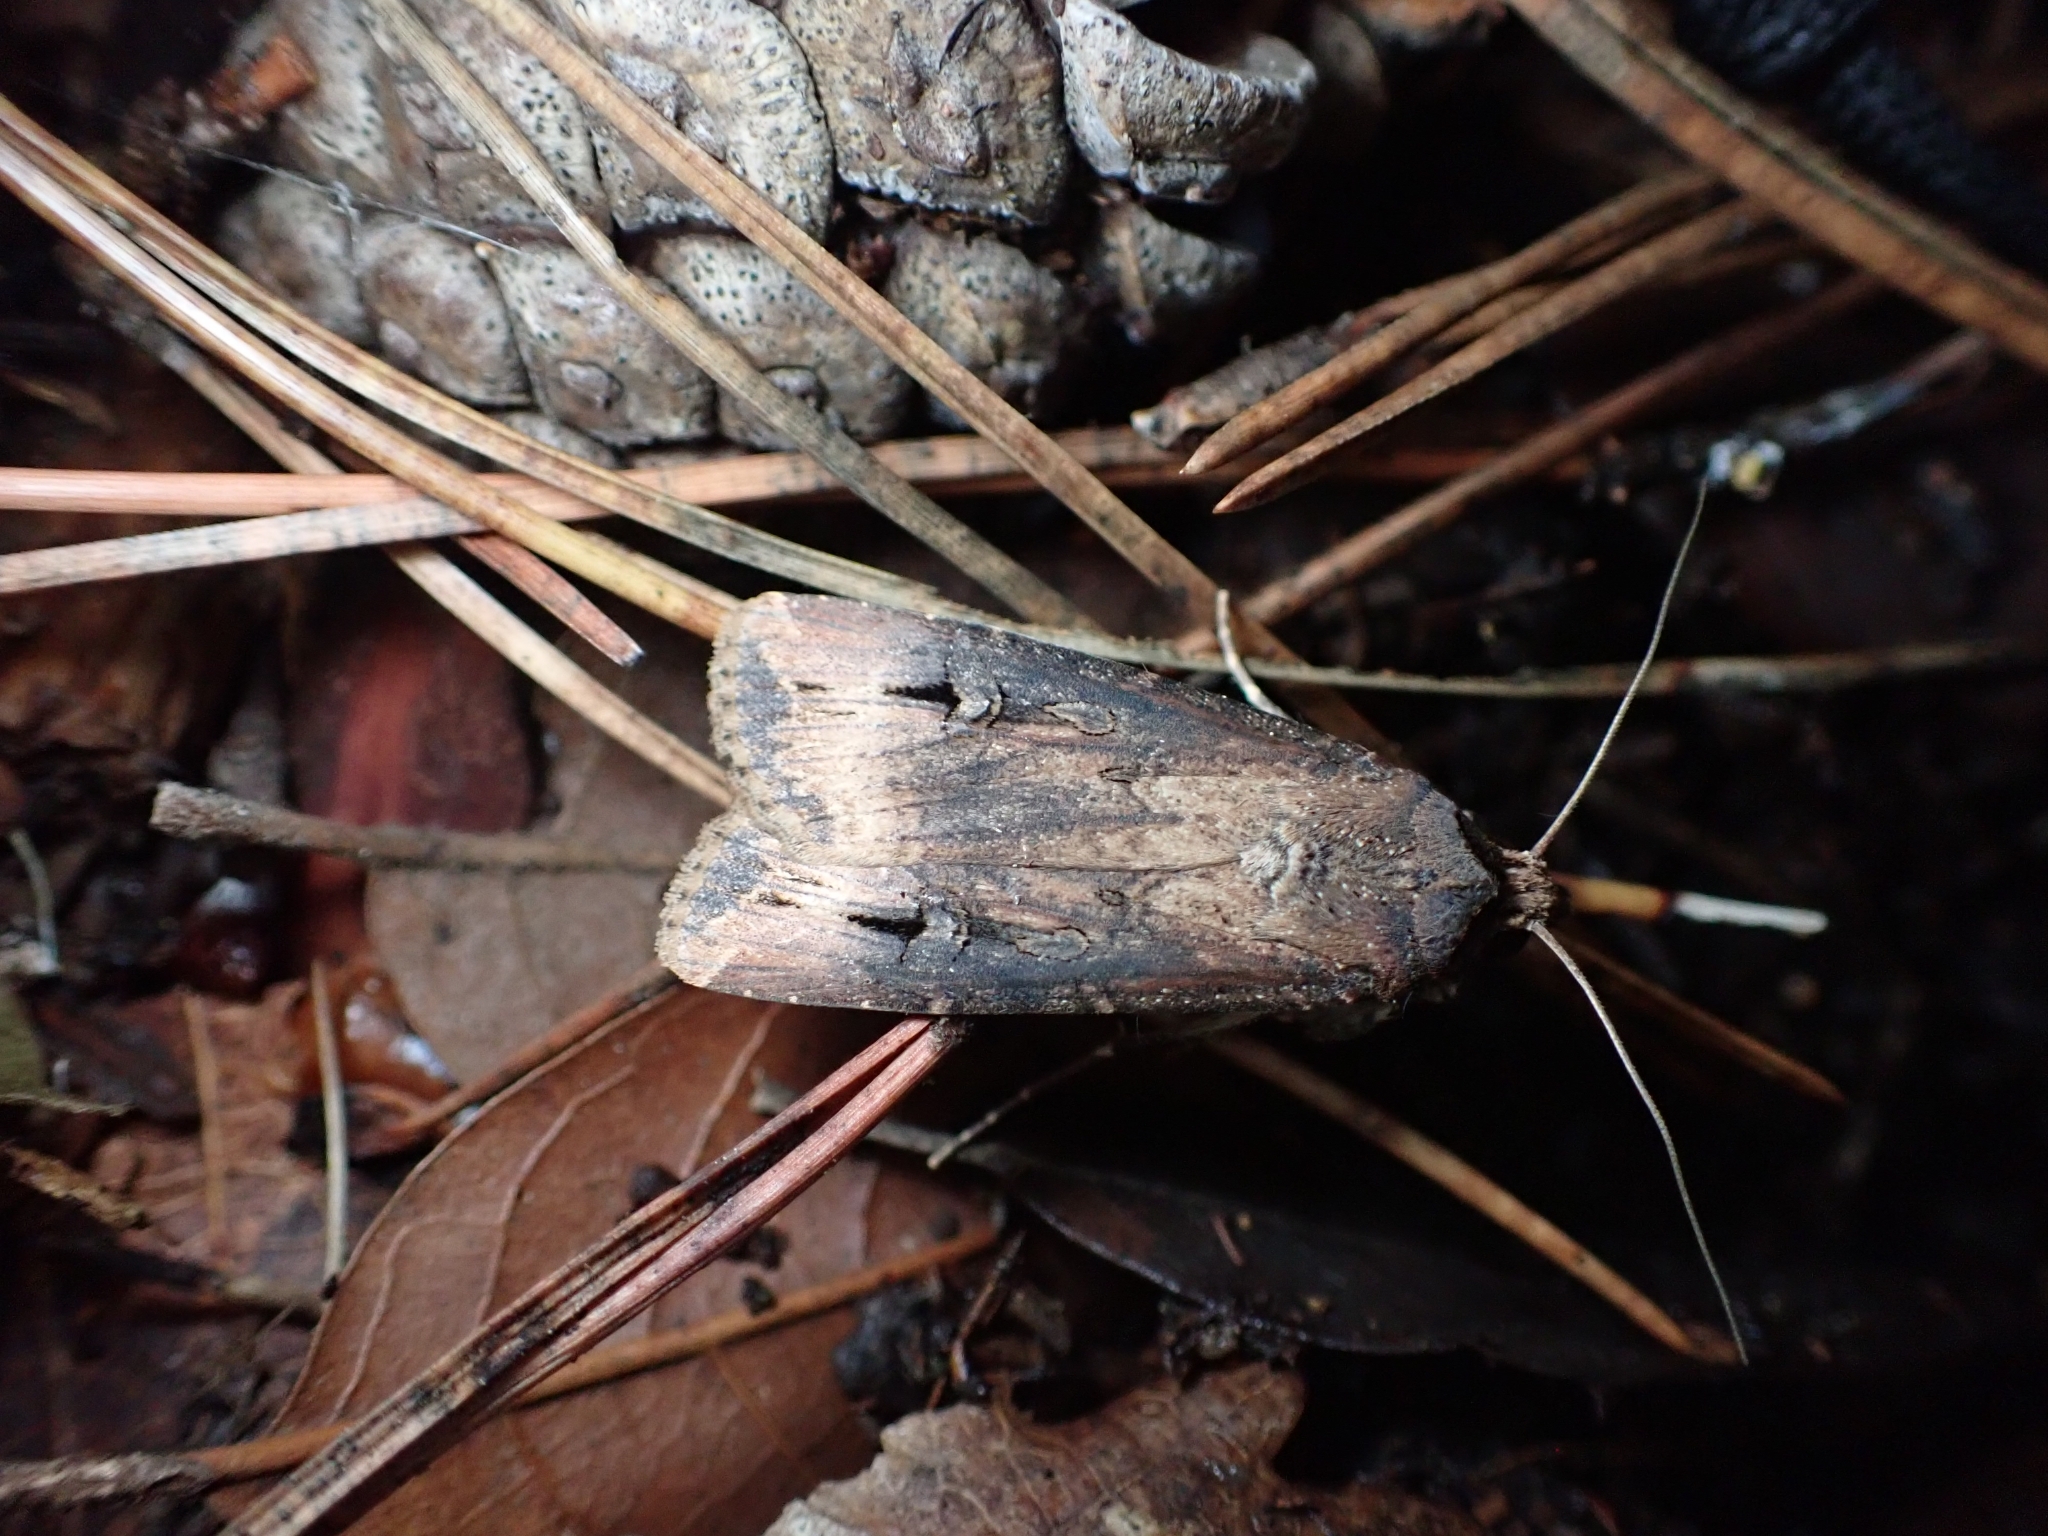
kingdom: Animalia
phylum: Arthropoda
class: Insecta
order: Lepidoptera
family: Noctuidae
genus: Agrotis
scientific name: Agrotis ipsilon
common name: Dark sword-grass
